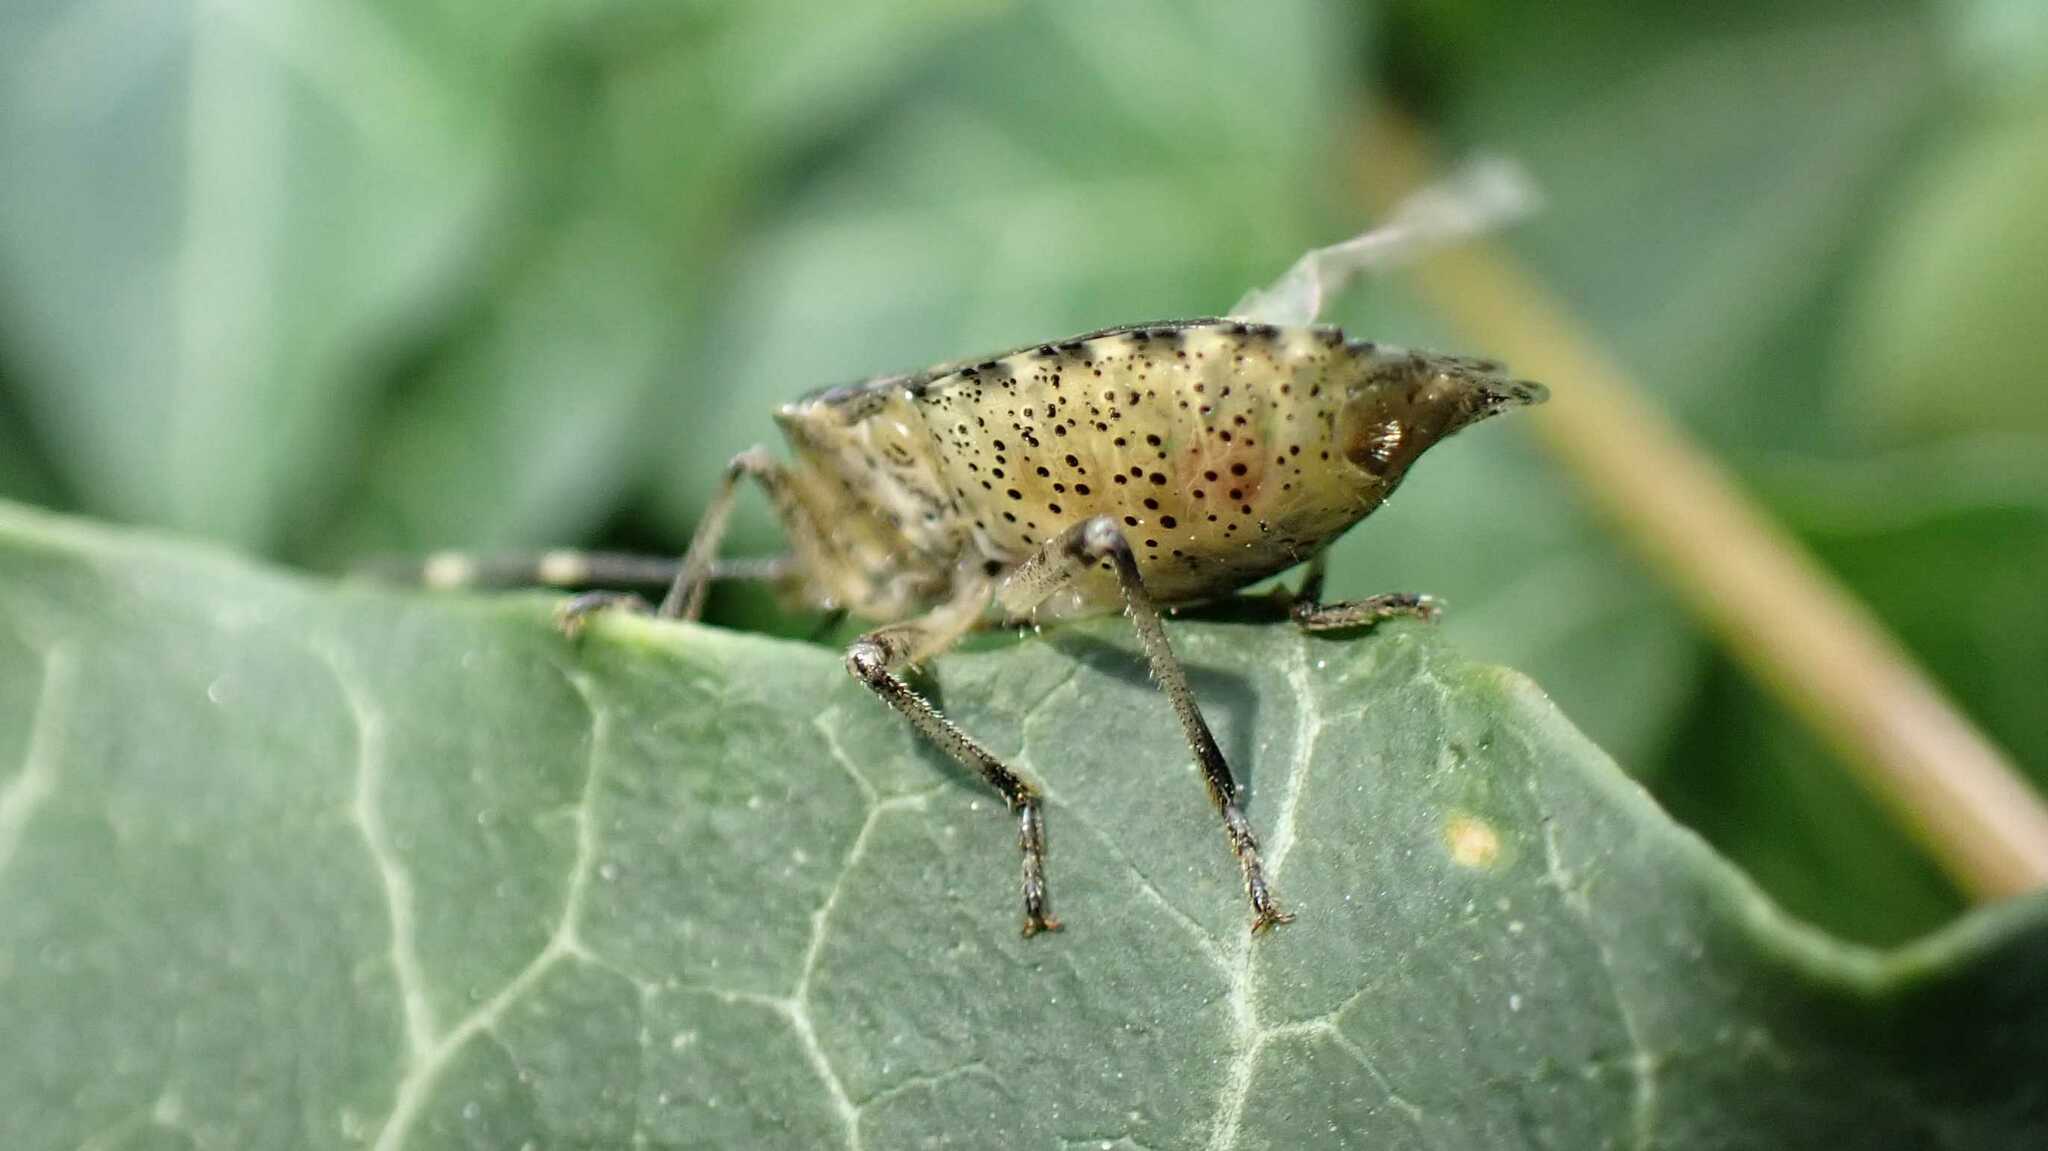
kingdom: Animalia
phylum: Arthropoda
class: Insecta
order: Hemiptera
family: Pentatomidae
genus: Rhaphigaster
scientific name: Rhaphigaster nebulosa
